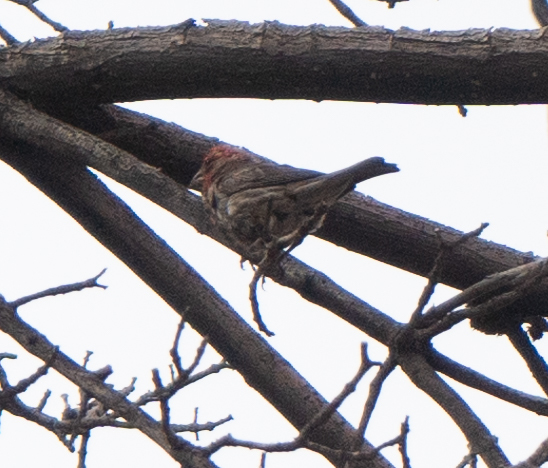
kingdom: Animalia
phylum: Chordata
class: Aves
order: Passeriformes
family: Fringillidae
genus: Haemorhous
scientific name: Haemorhous mexicanus
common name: House finch
